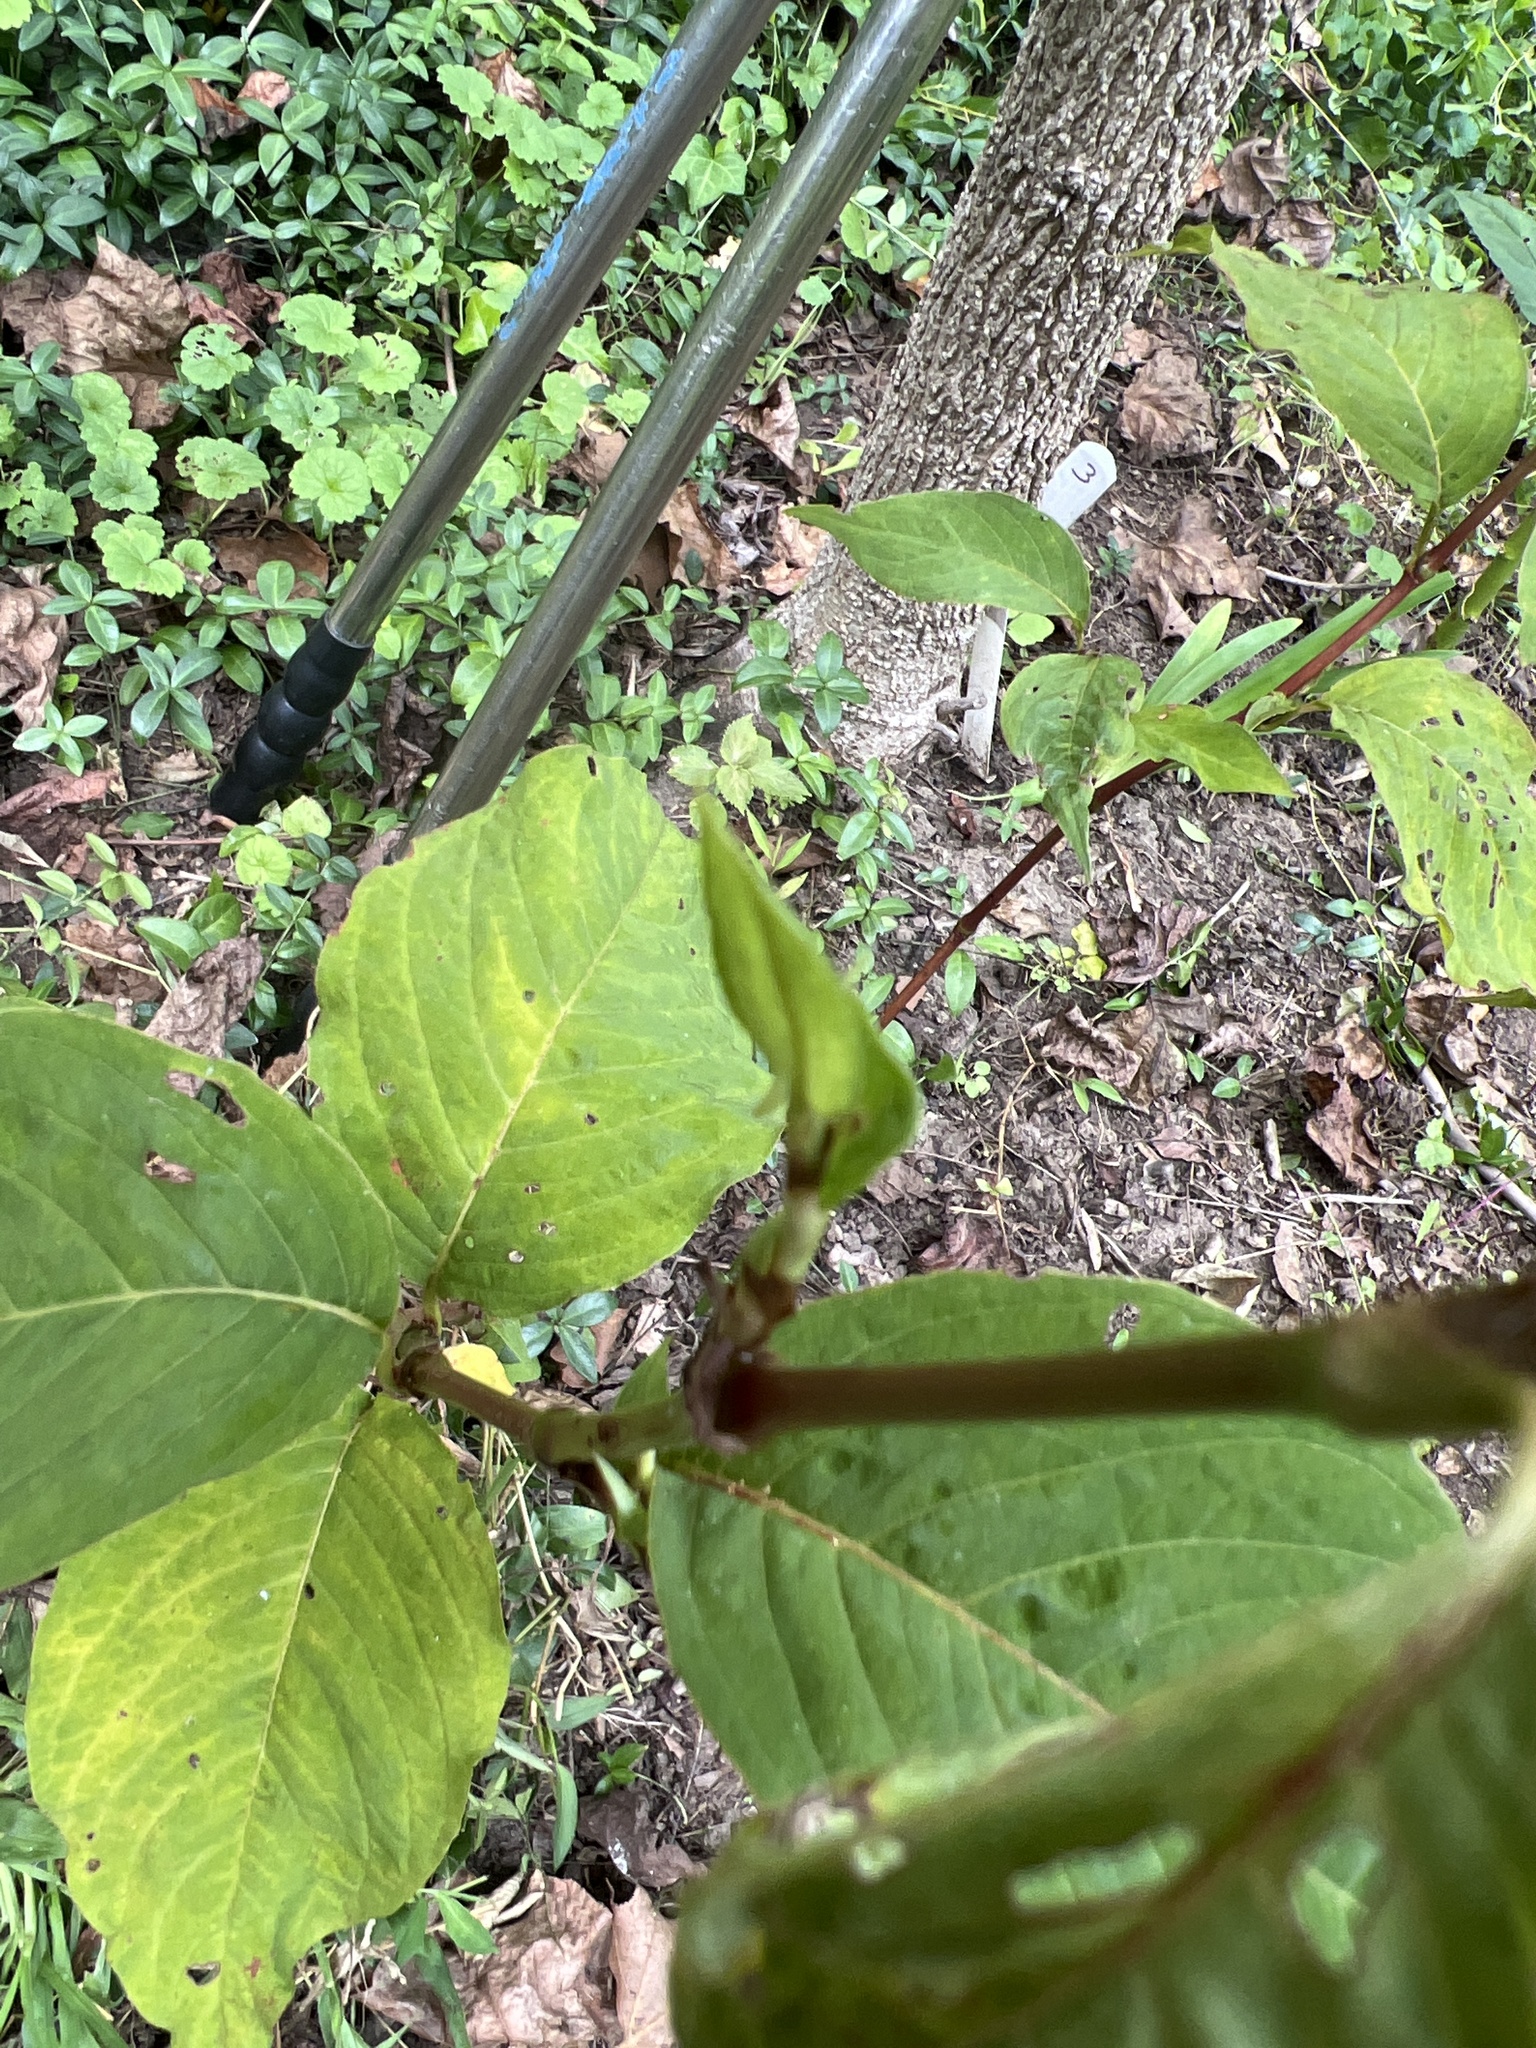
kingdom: Plantae
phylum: Tracheophyta
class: Magnoliopsida
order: Caryophyllales
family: Polygonaceae
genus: Persicaria
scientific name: Persicaria virginiana
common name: Jumpseed
